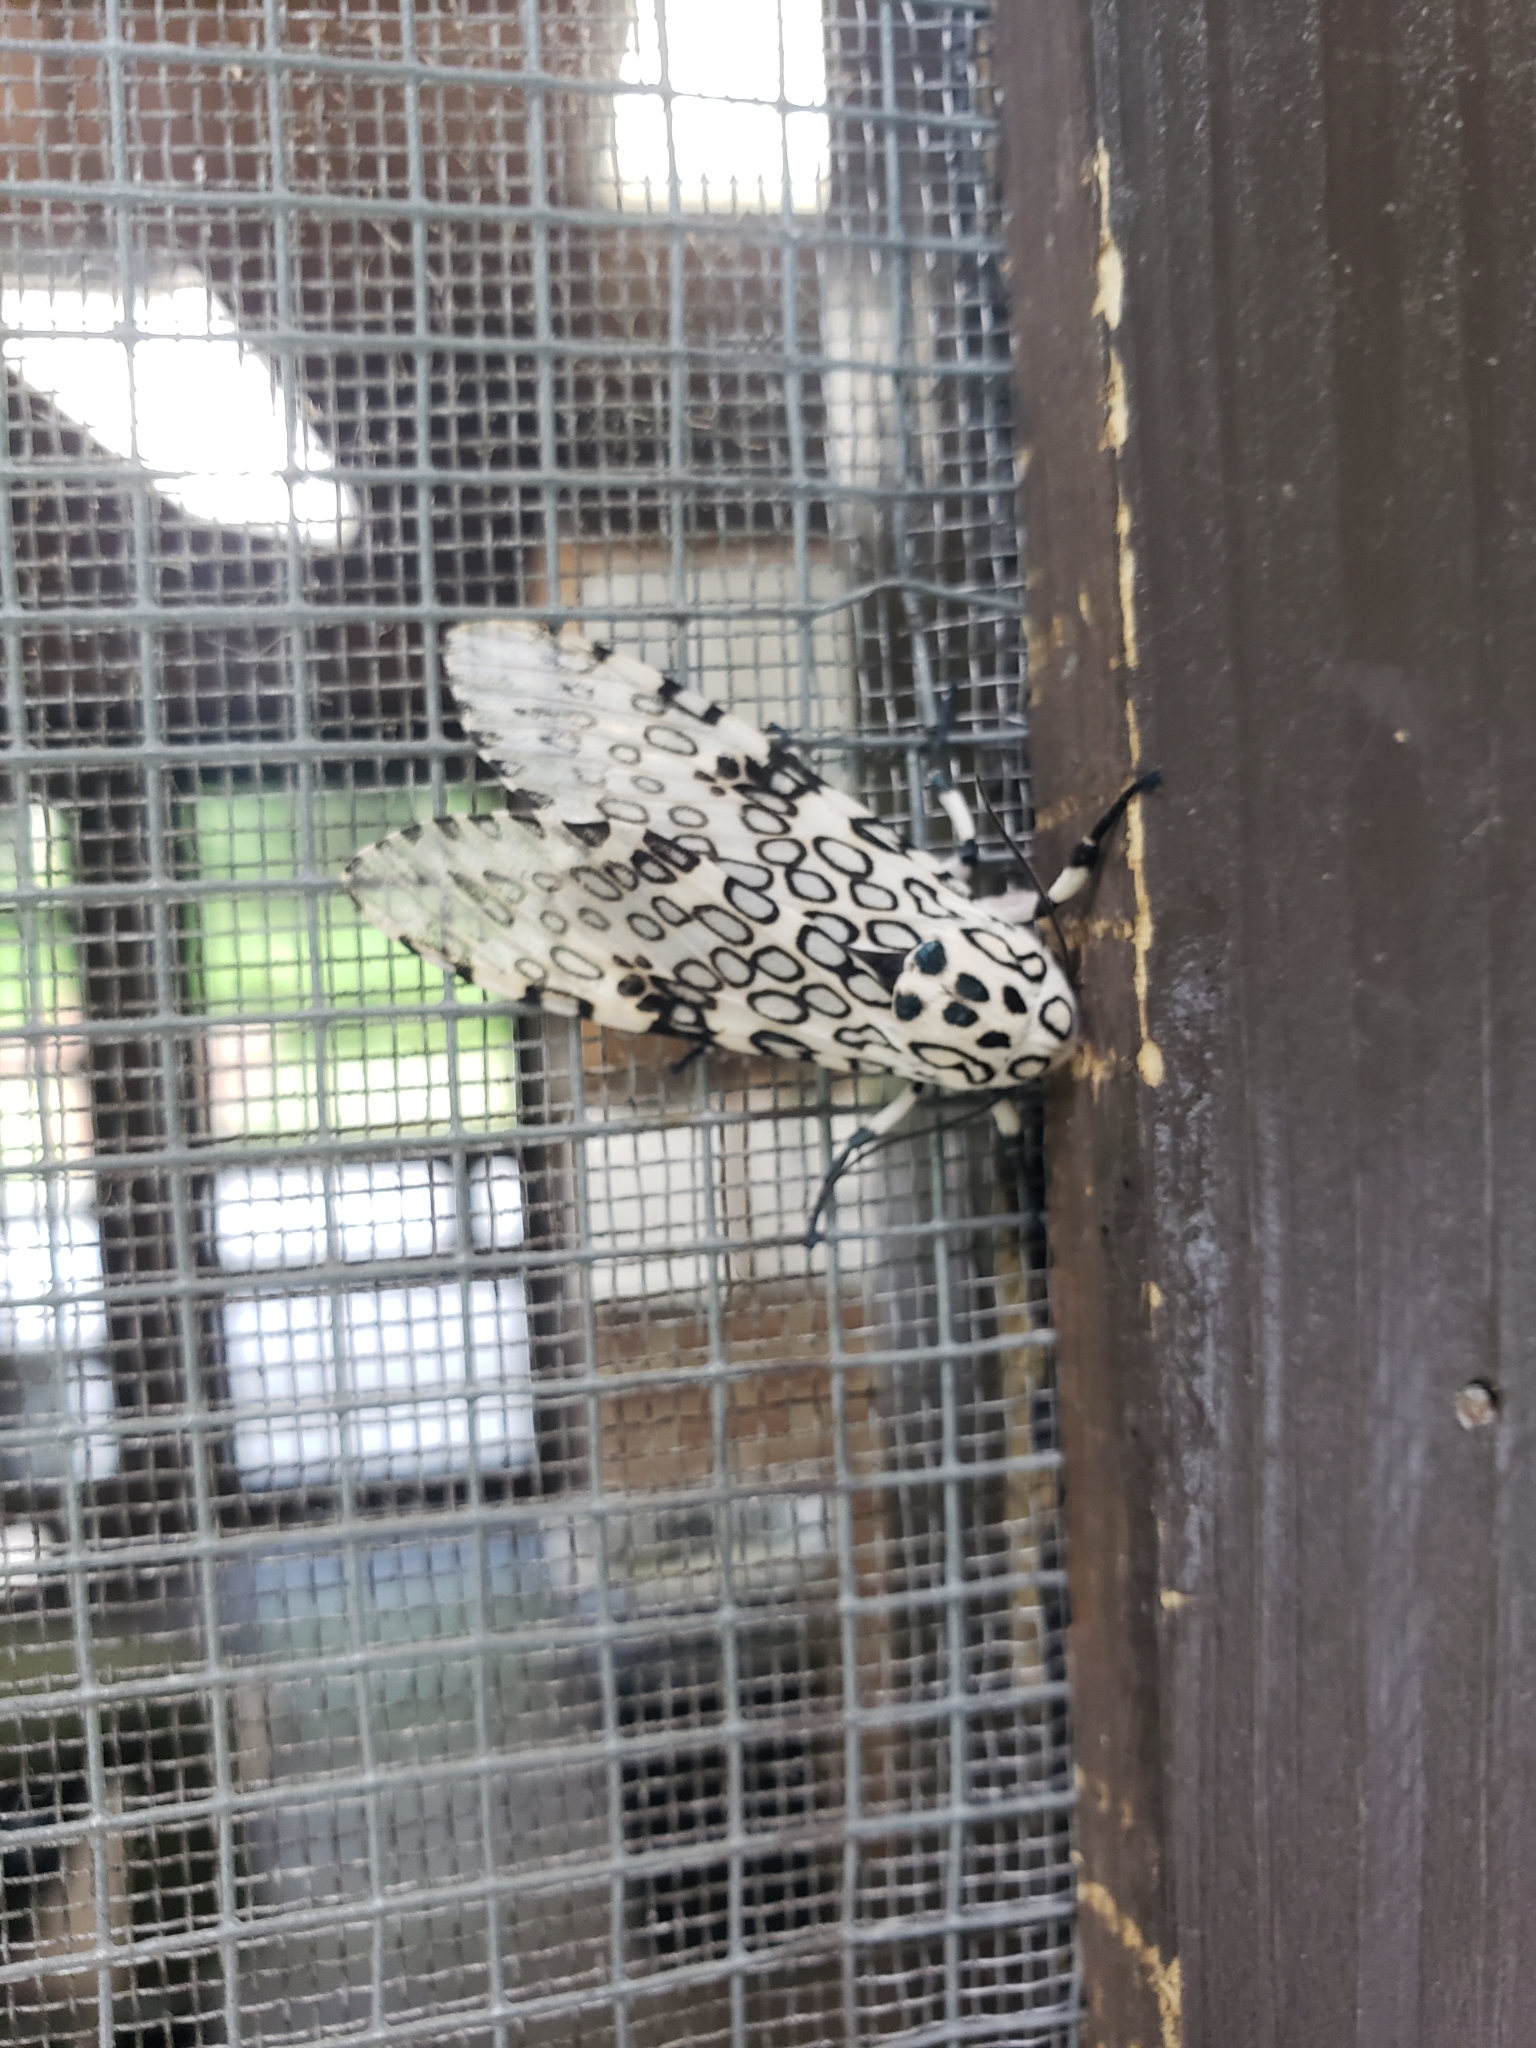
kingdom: Animalia
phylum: Arthropoda
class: Insecta
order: Lepidoptera
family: Erebidae
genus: Hypercompe
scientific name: Hypercompe scribonia
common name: Giant leopard moth
